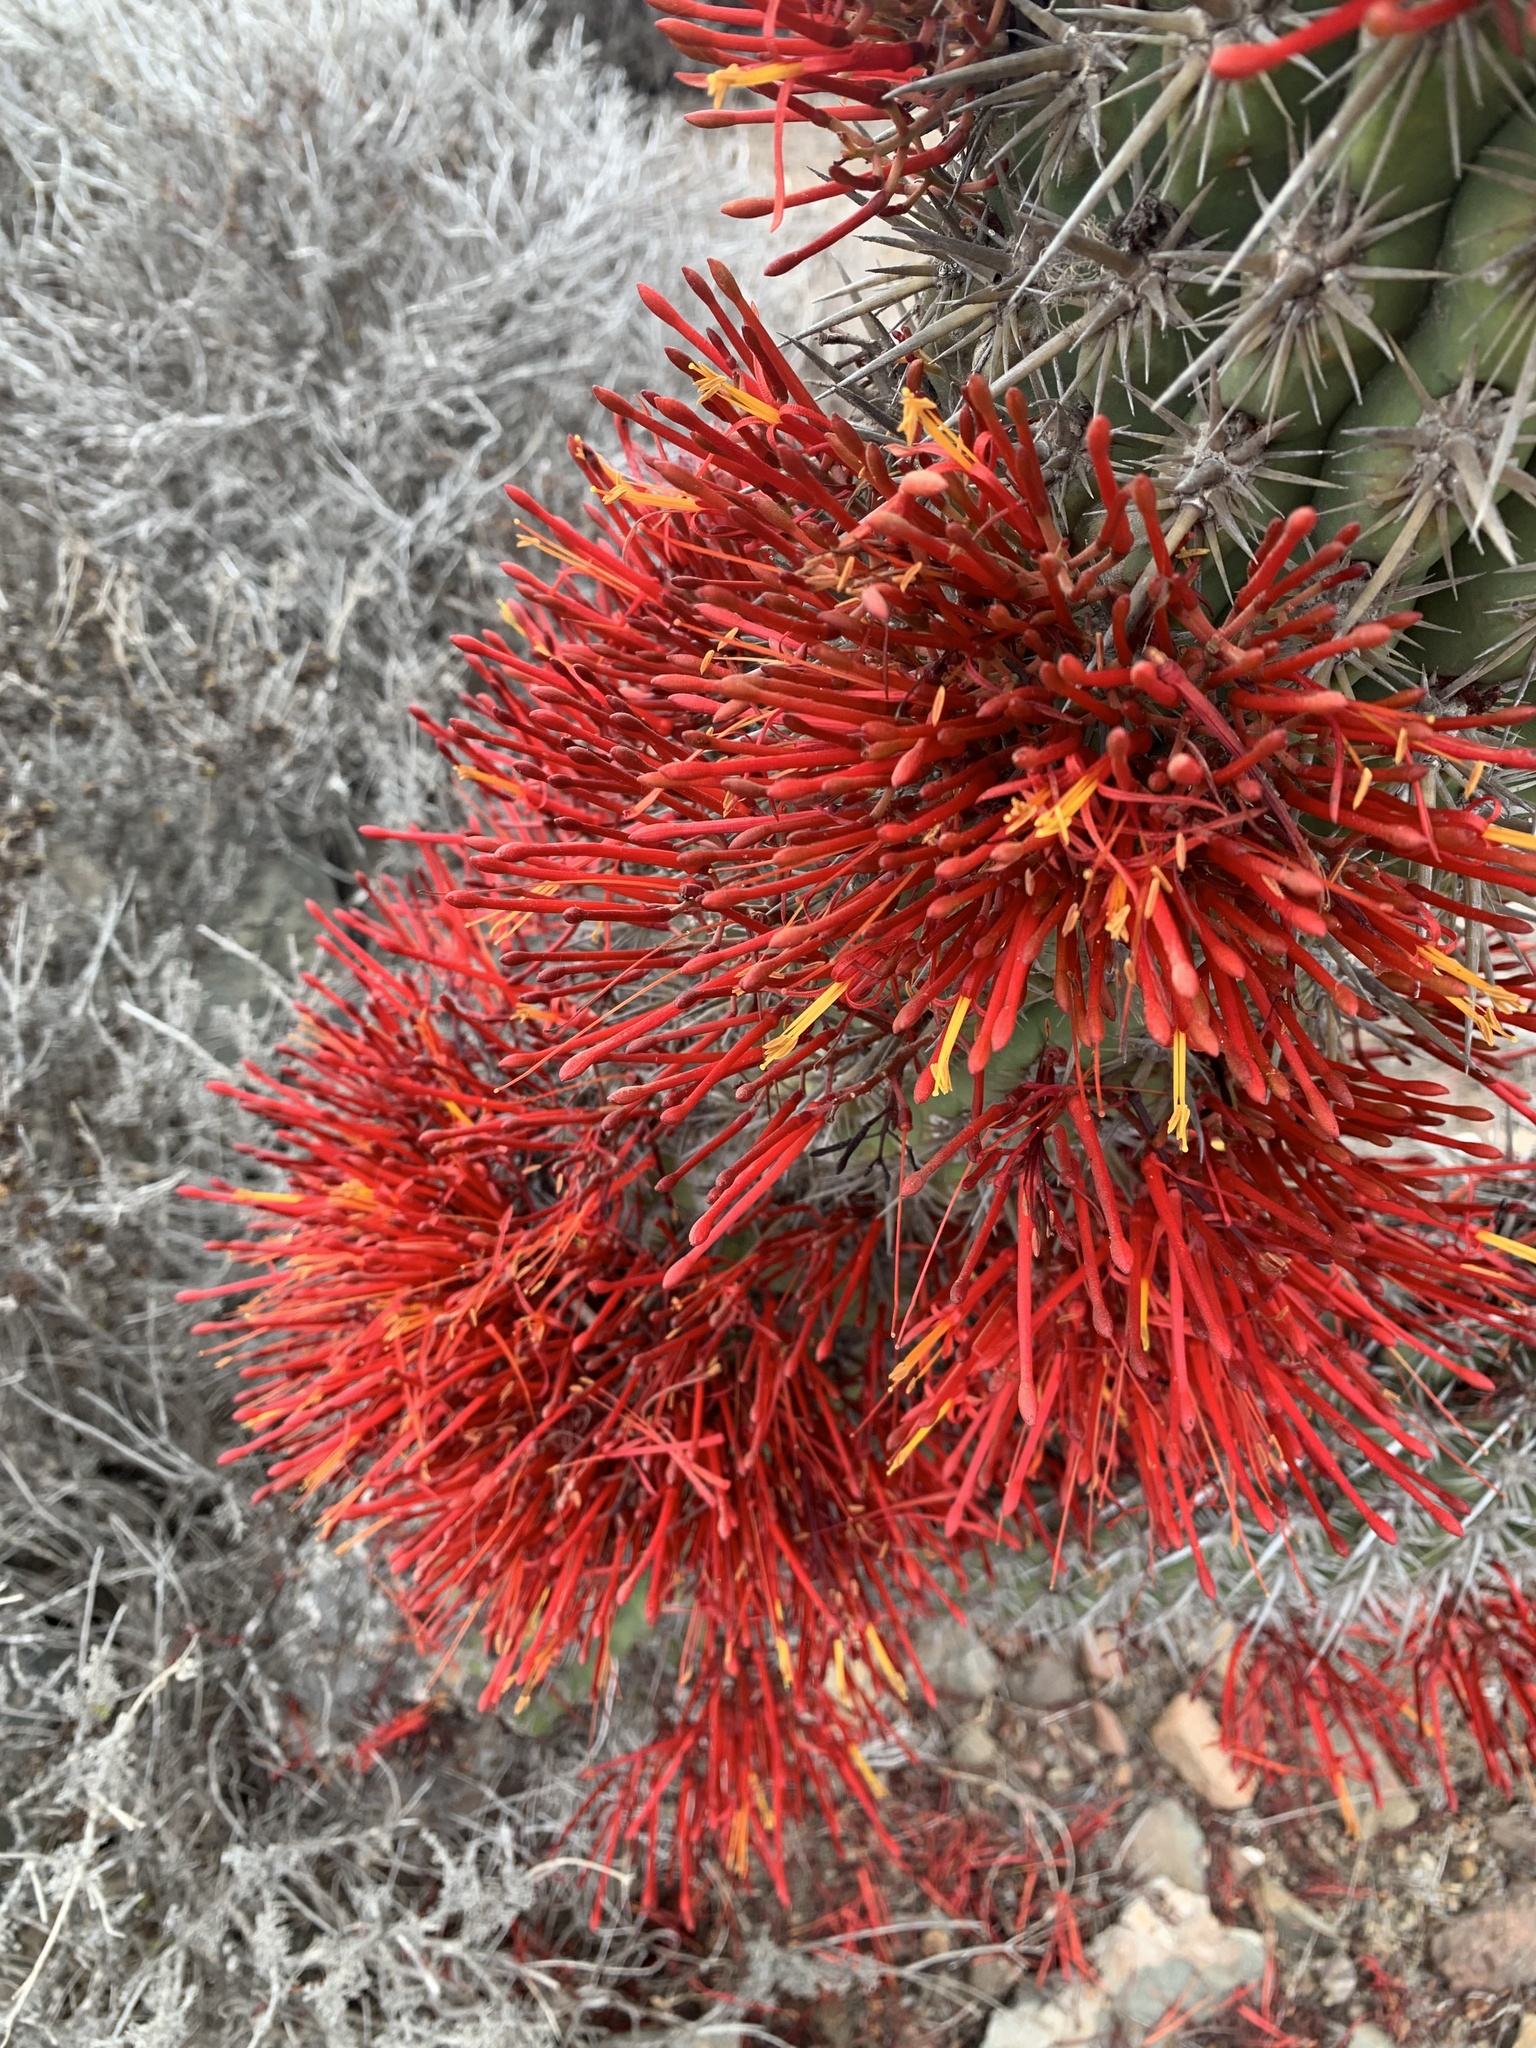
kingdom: Plantae
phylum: Tracheophyta
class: Magnoliopsida
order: Santalales
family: Loranthaceae
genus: Tristerix
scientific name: Tristerix aphyllus
